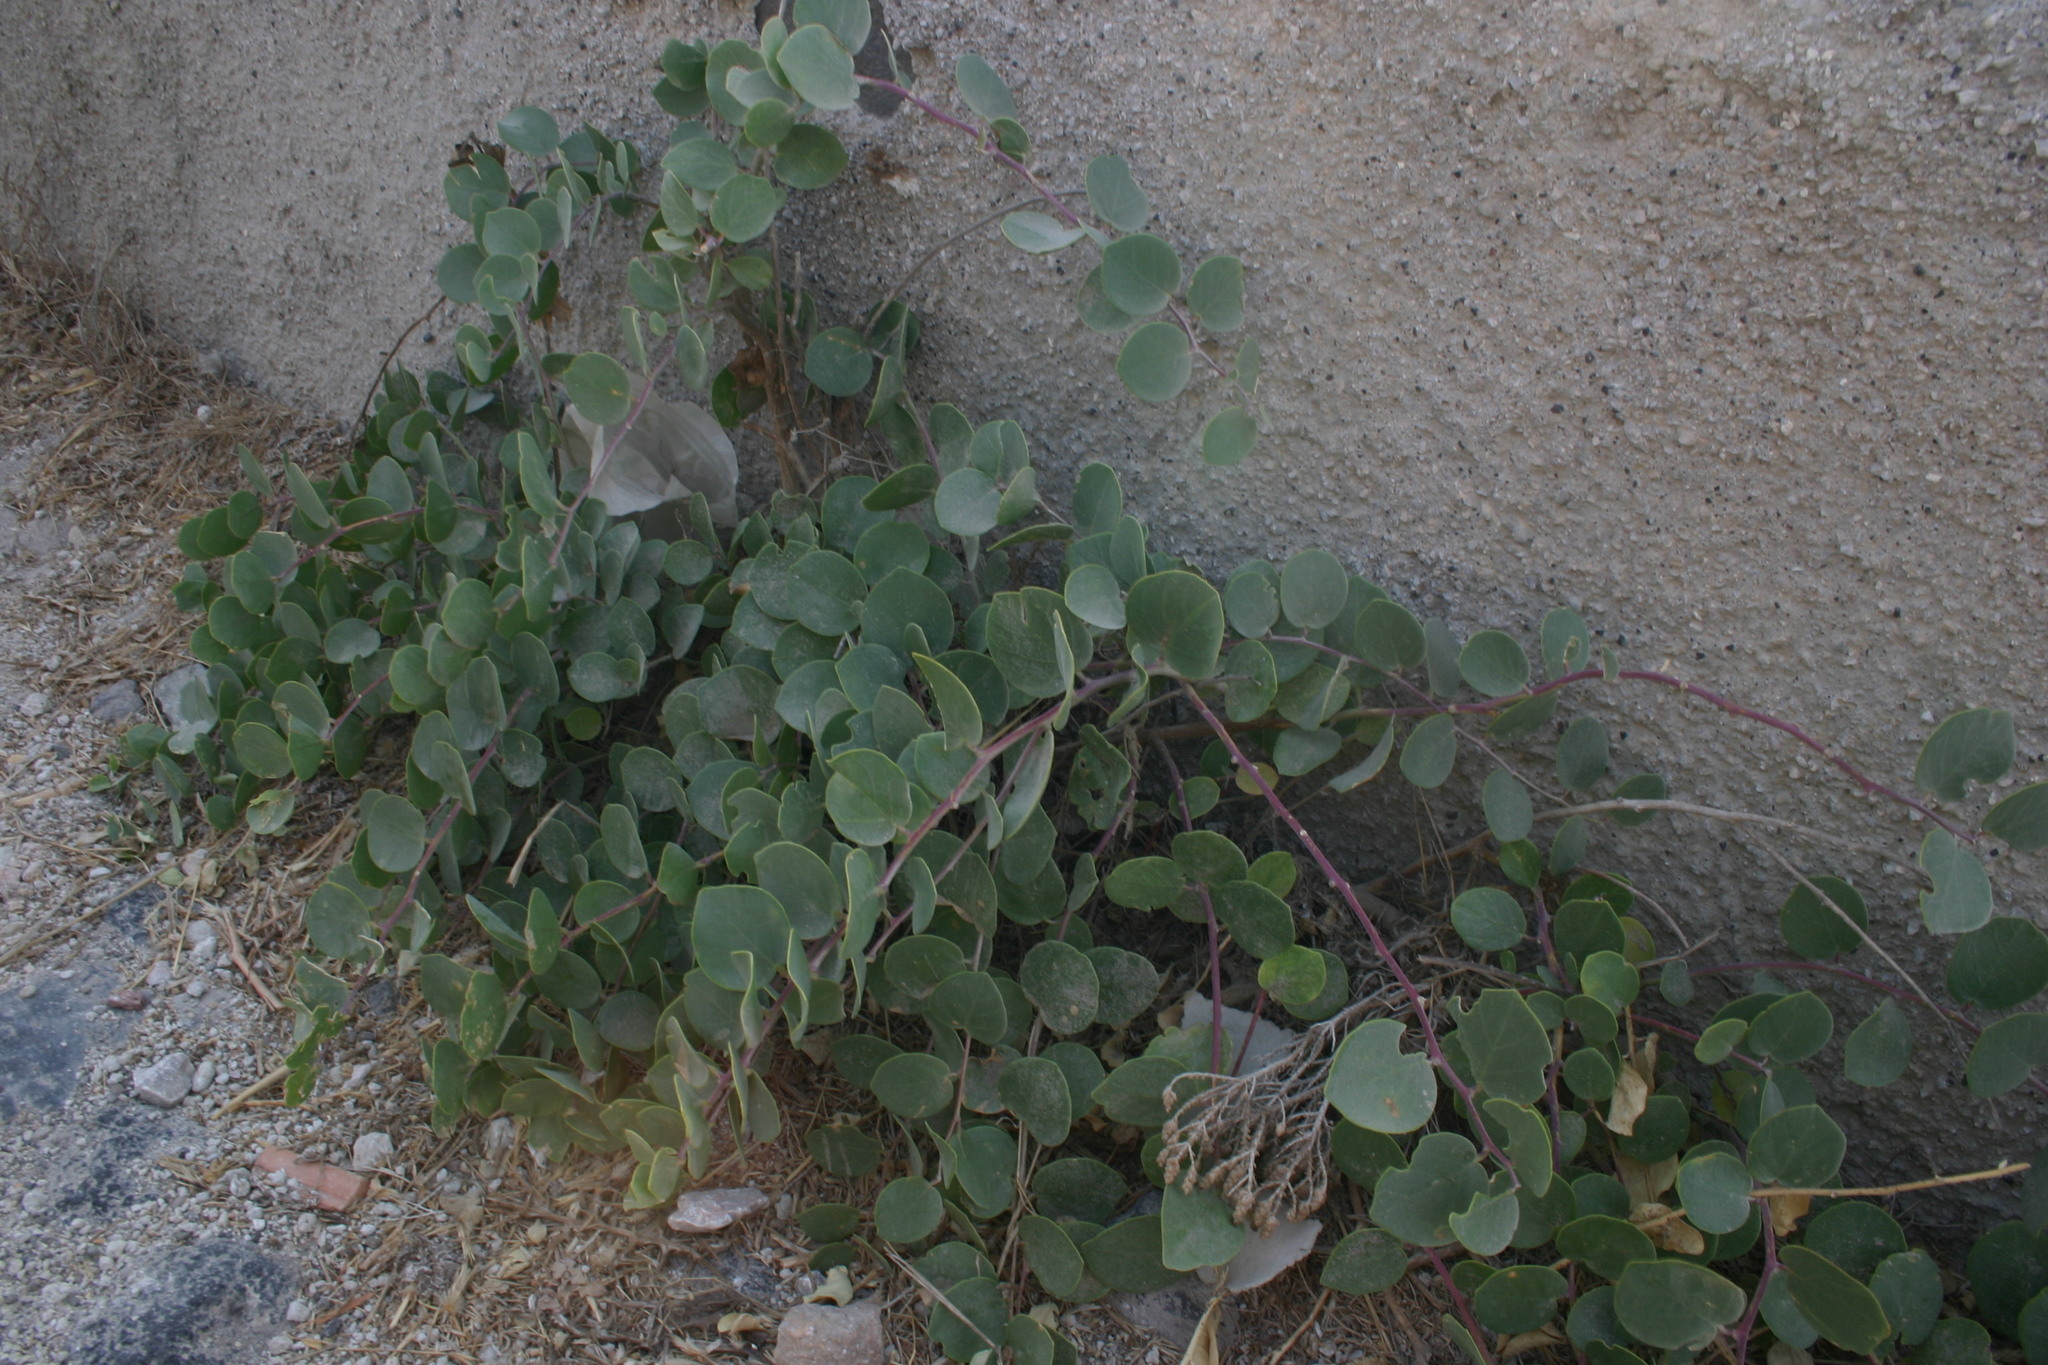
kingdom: Plantae
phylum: Tracheophyta
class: Magnoliopsida
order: Brassicales
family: Capparaceae
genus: Capparis
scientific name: Capparis orientalis
